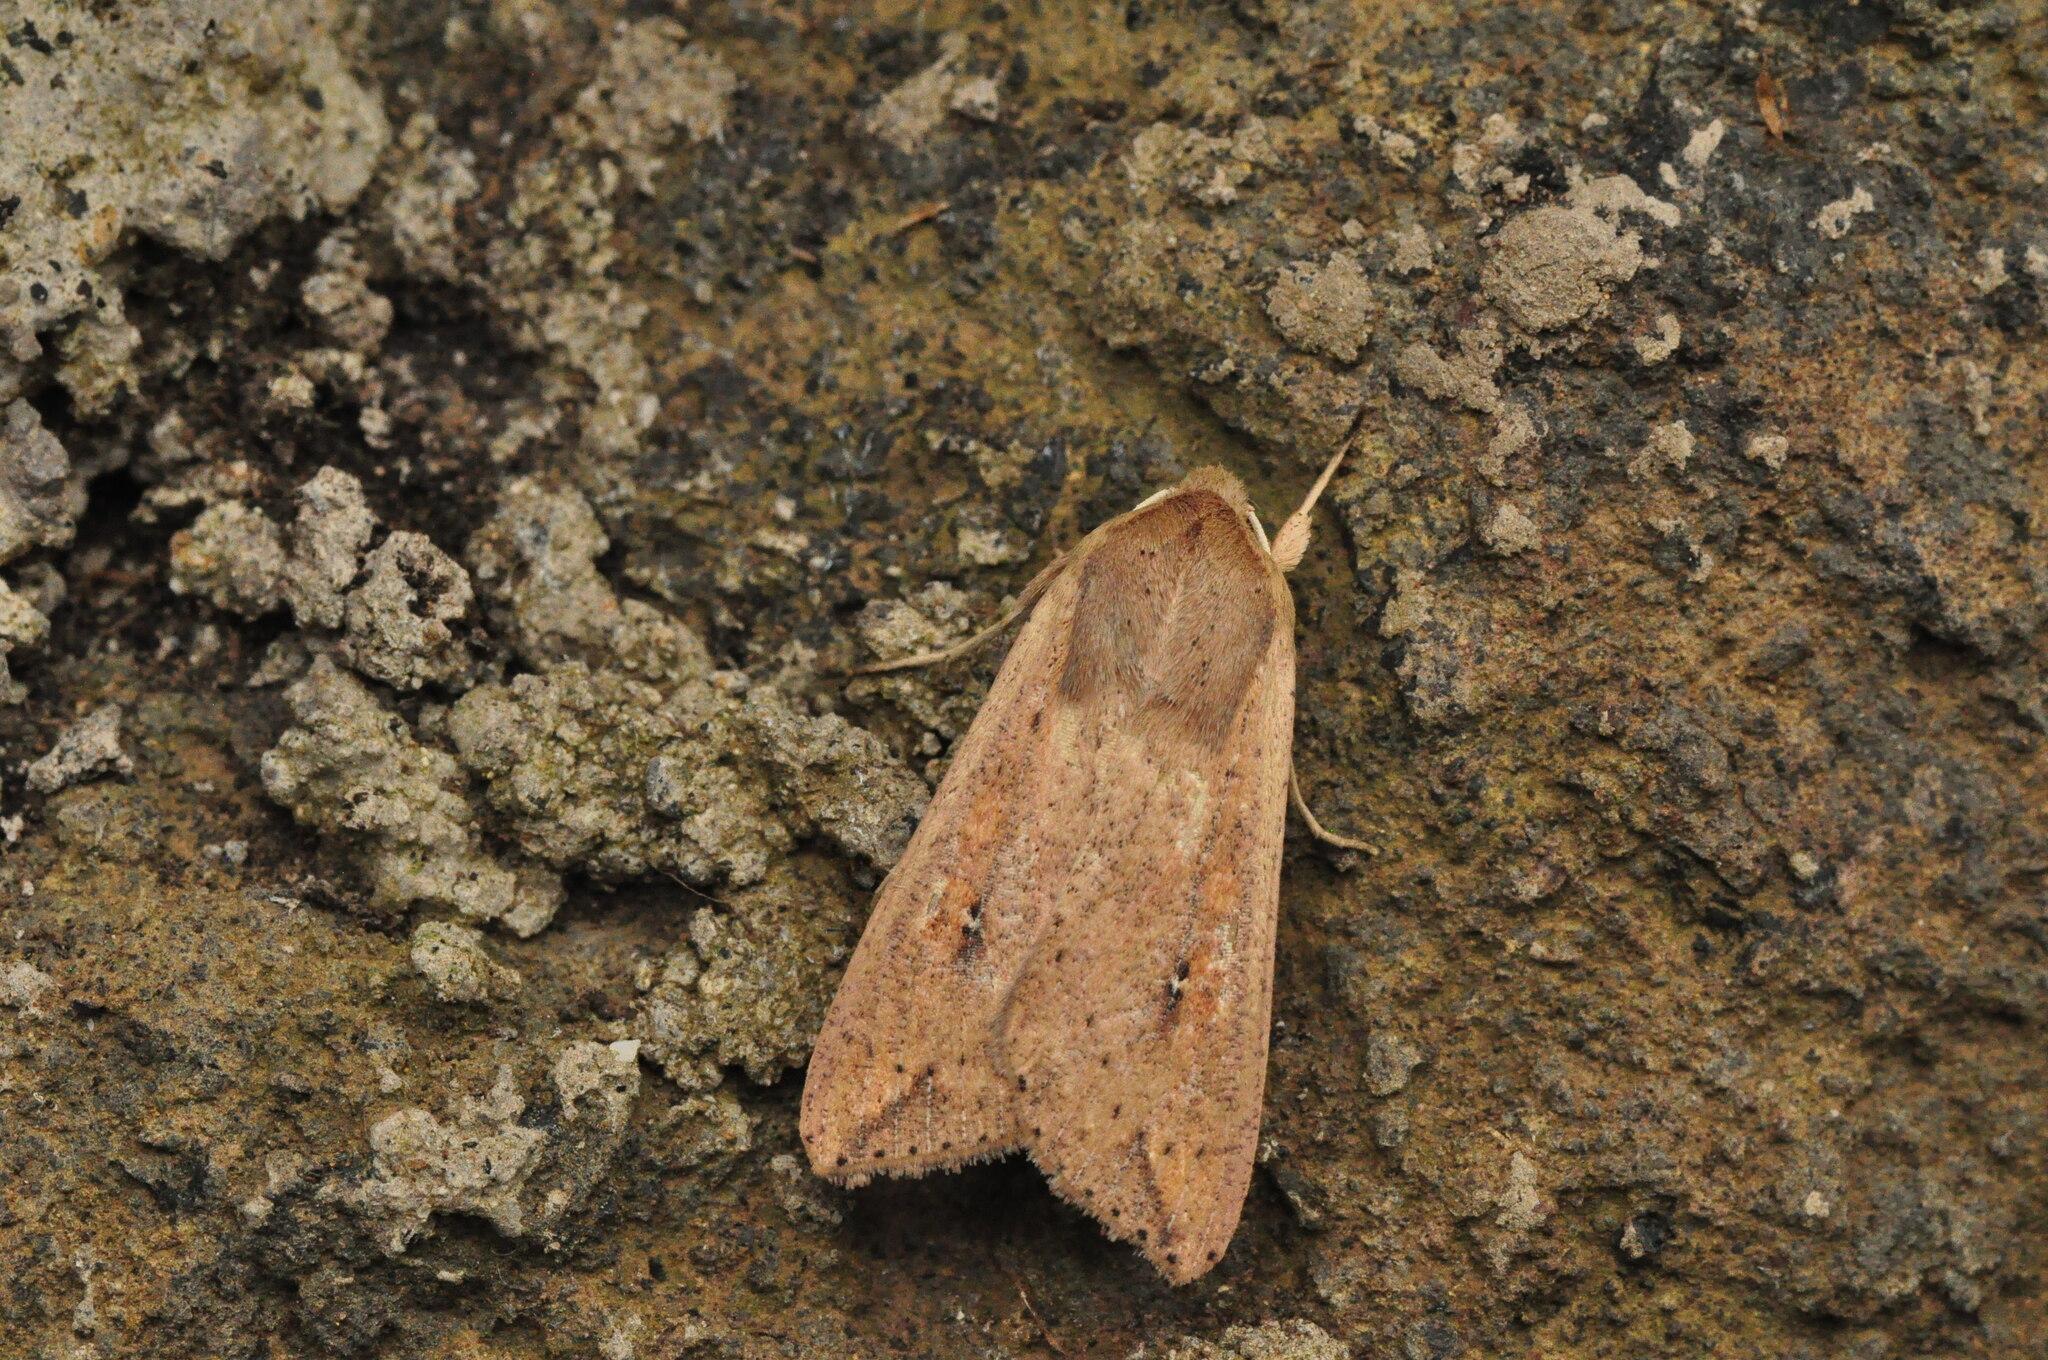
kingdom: Animalia
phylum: Arthropoda
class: Insecta
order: Lepidoptera
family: Noctuidae
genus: Mythimna
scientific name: Mythimna unipuncta
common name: White-speck
